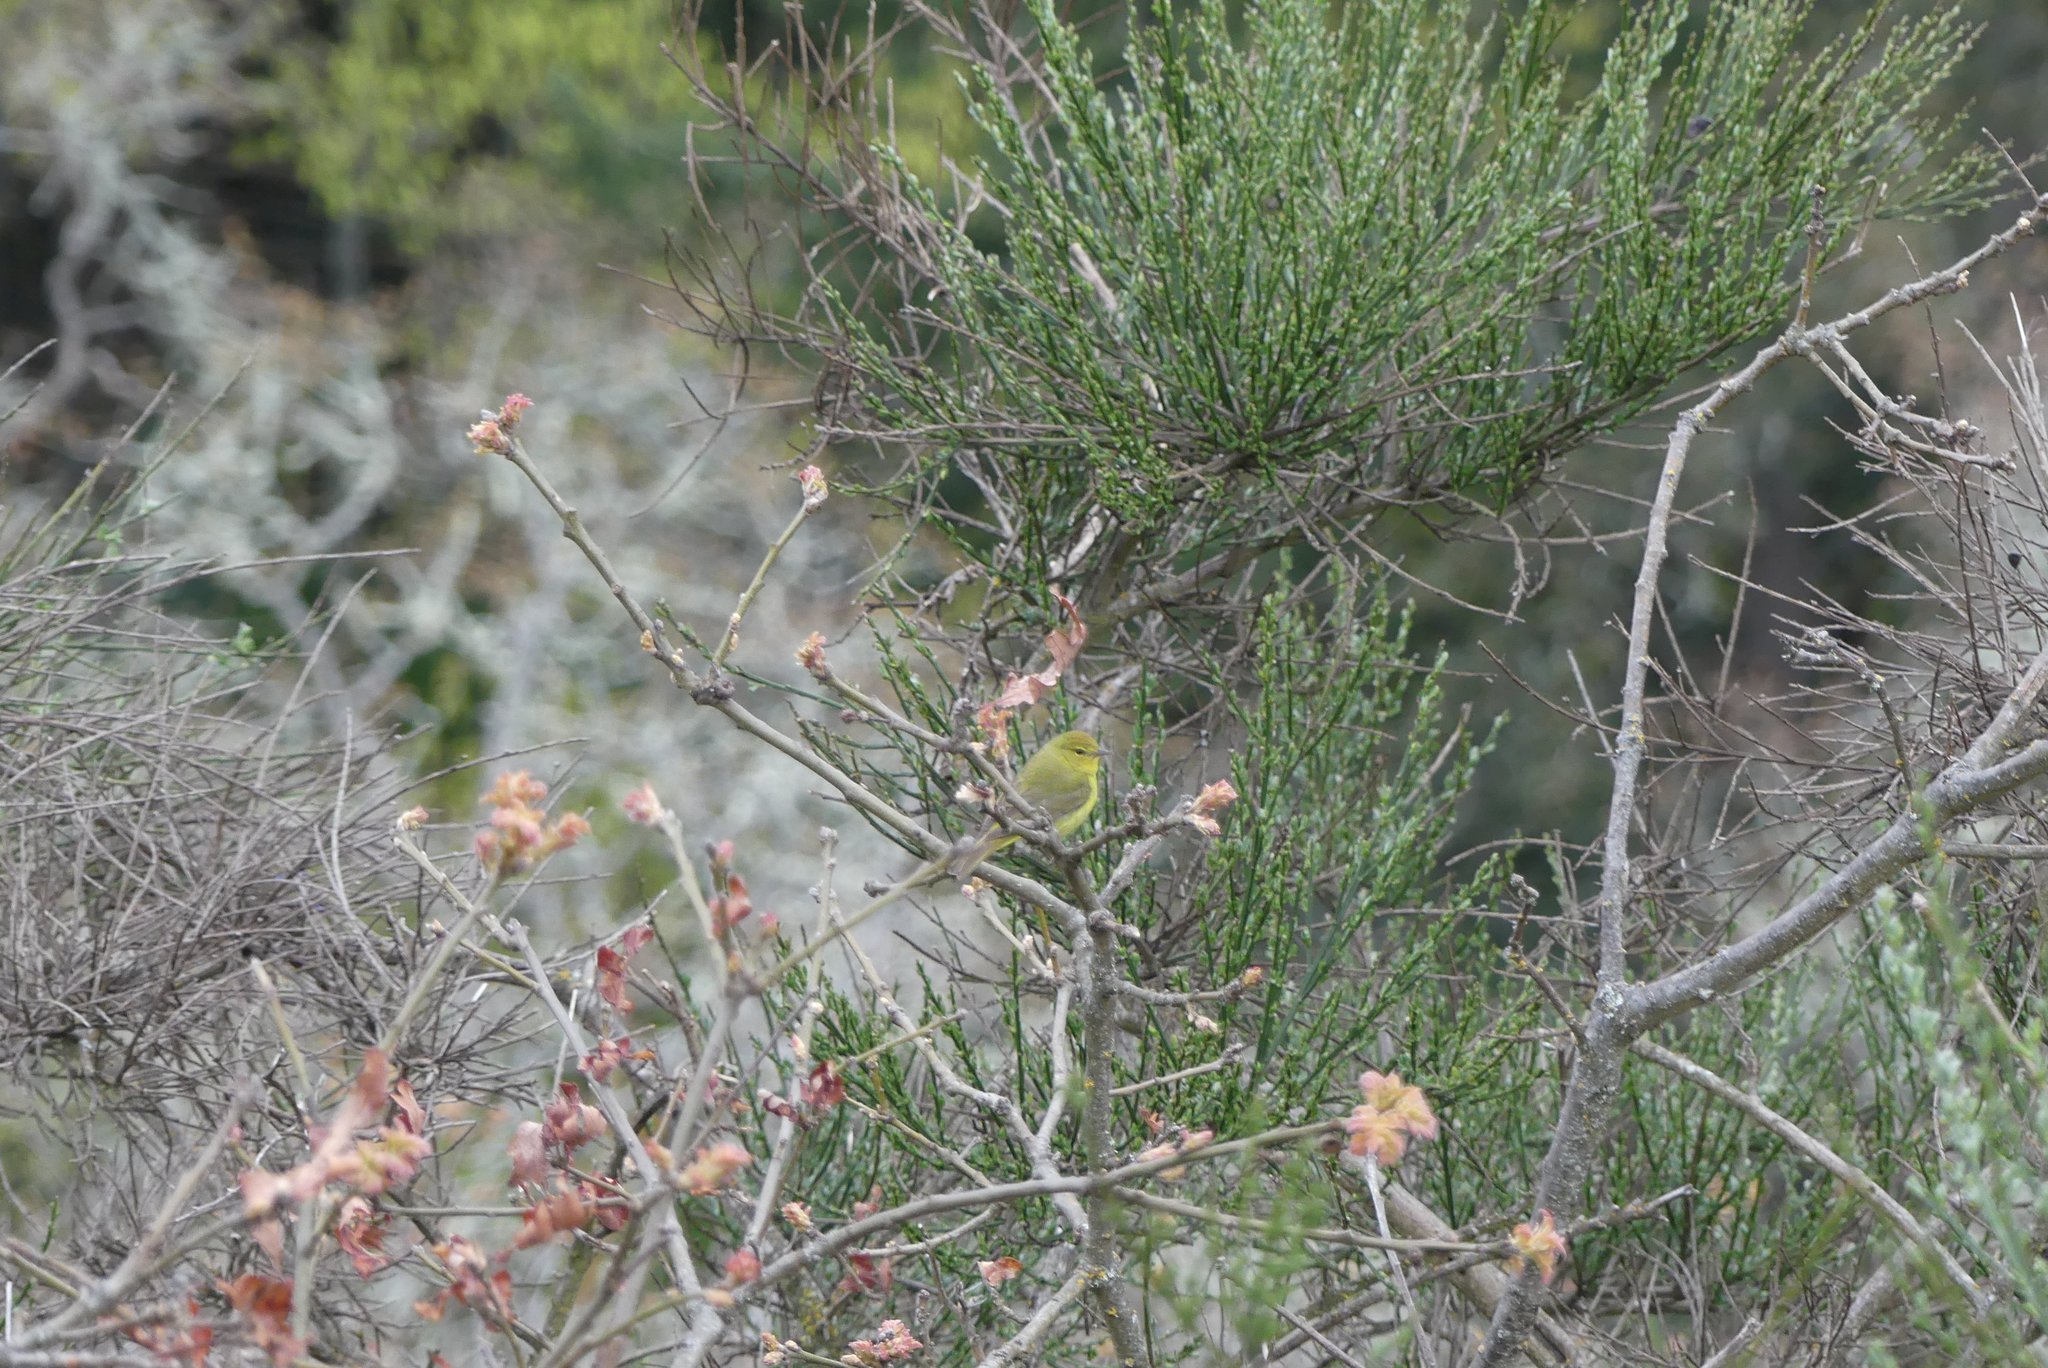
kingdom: Animalia
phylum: Chordata
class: Aves
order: Passeriformes
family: Parulidae
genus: Leiothlypis
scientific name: Leiothlypis celata
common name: Orange-crowned warbler
